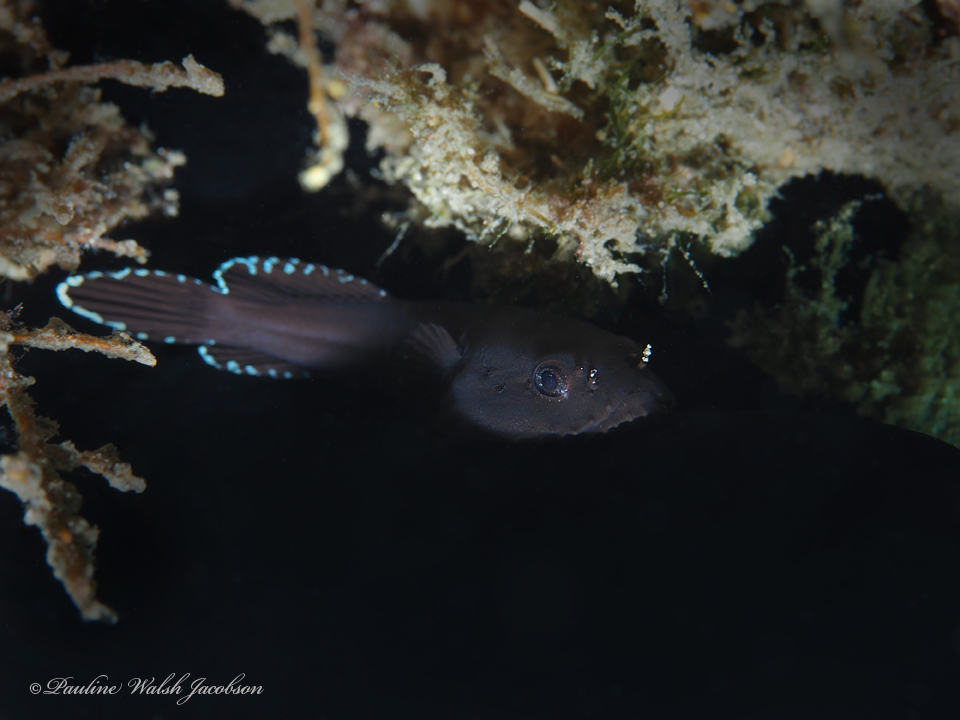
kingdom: Animalia
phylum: Chordata
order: Gobiesociformes
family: Gobiesocidae
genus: Gobiesox
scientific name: Gobiesox strumosus
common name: Skilletfish
